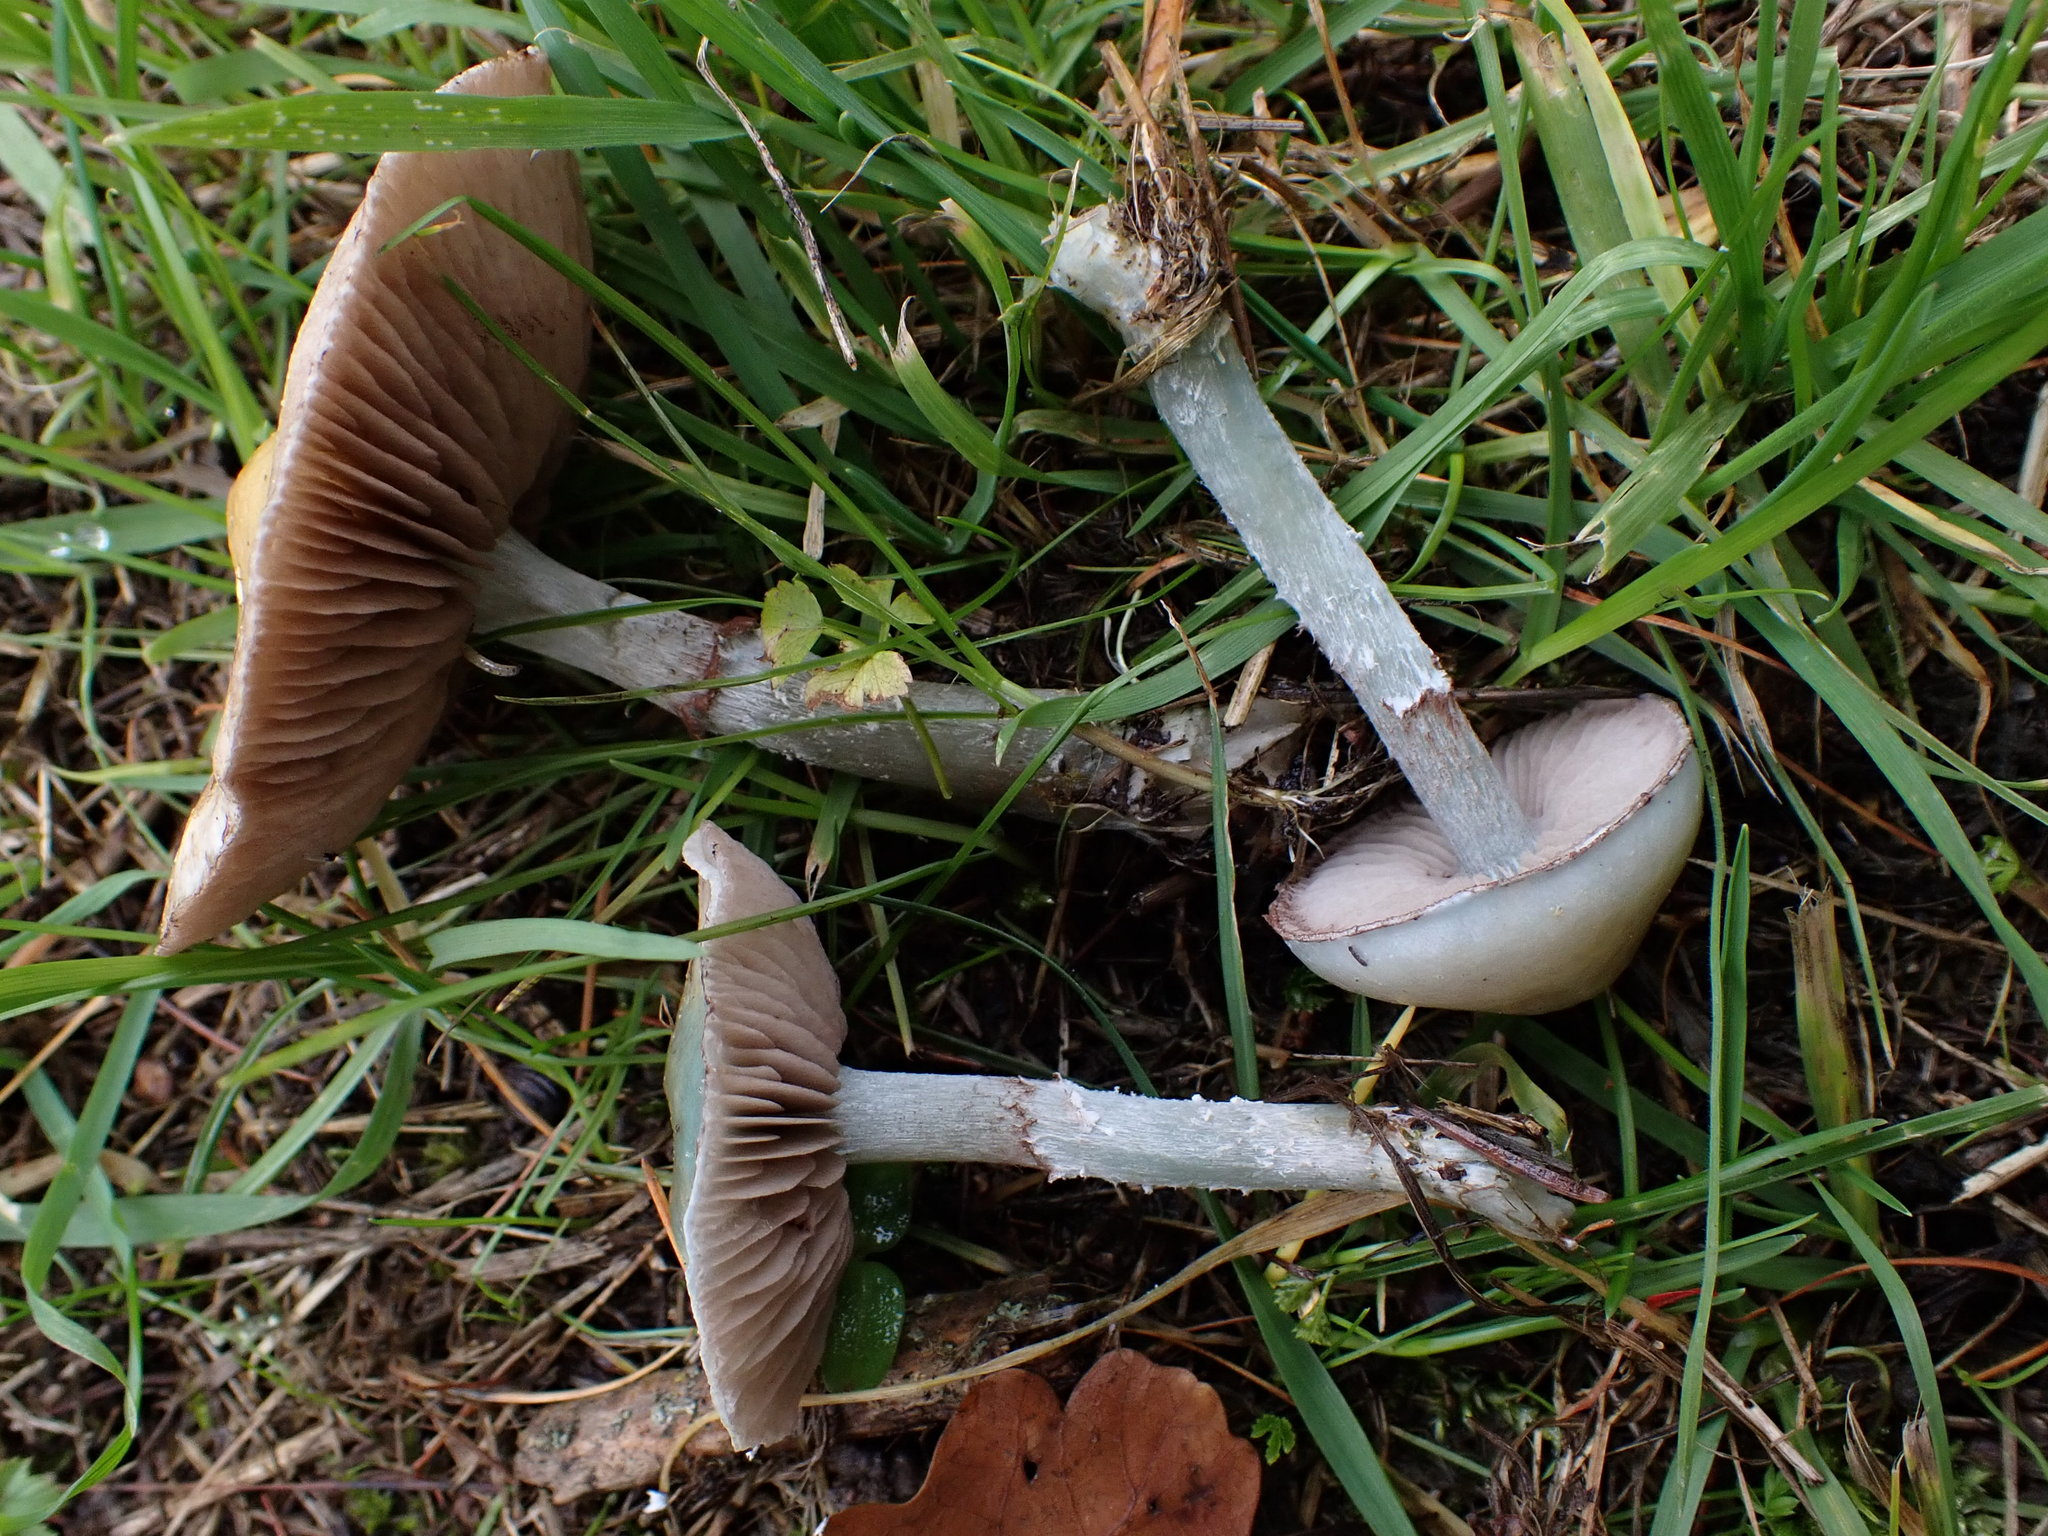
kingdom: Fungi
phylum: Basidiomycota
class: Agaricomycetes
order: Agaricales
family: Strophariaceae
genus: Stropharia
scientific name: Stropharia caerulea
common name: Blue roundhead
